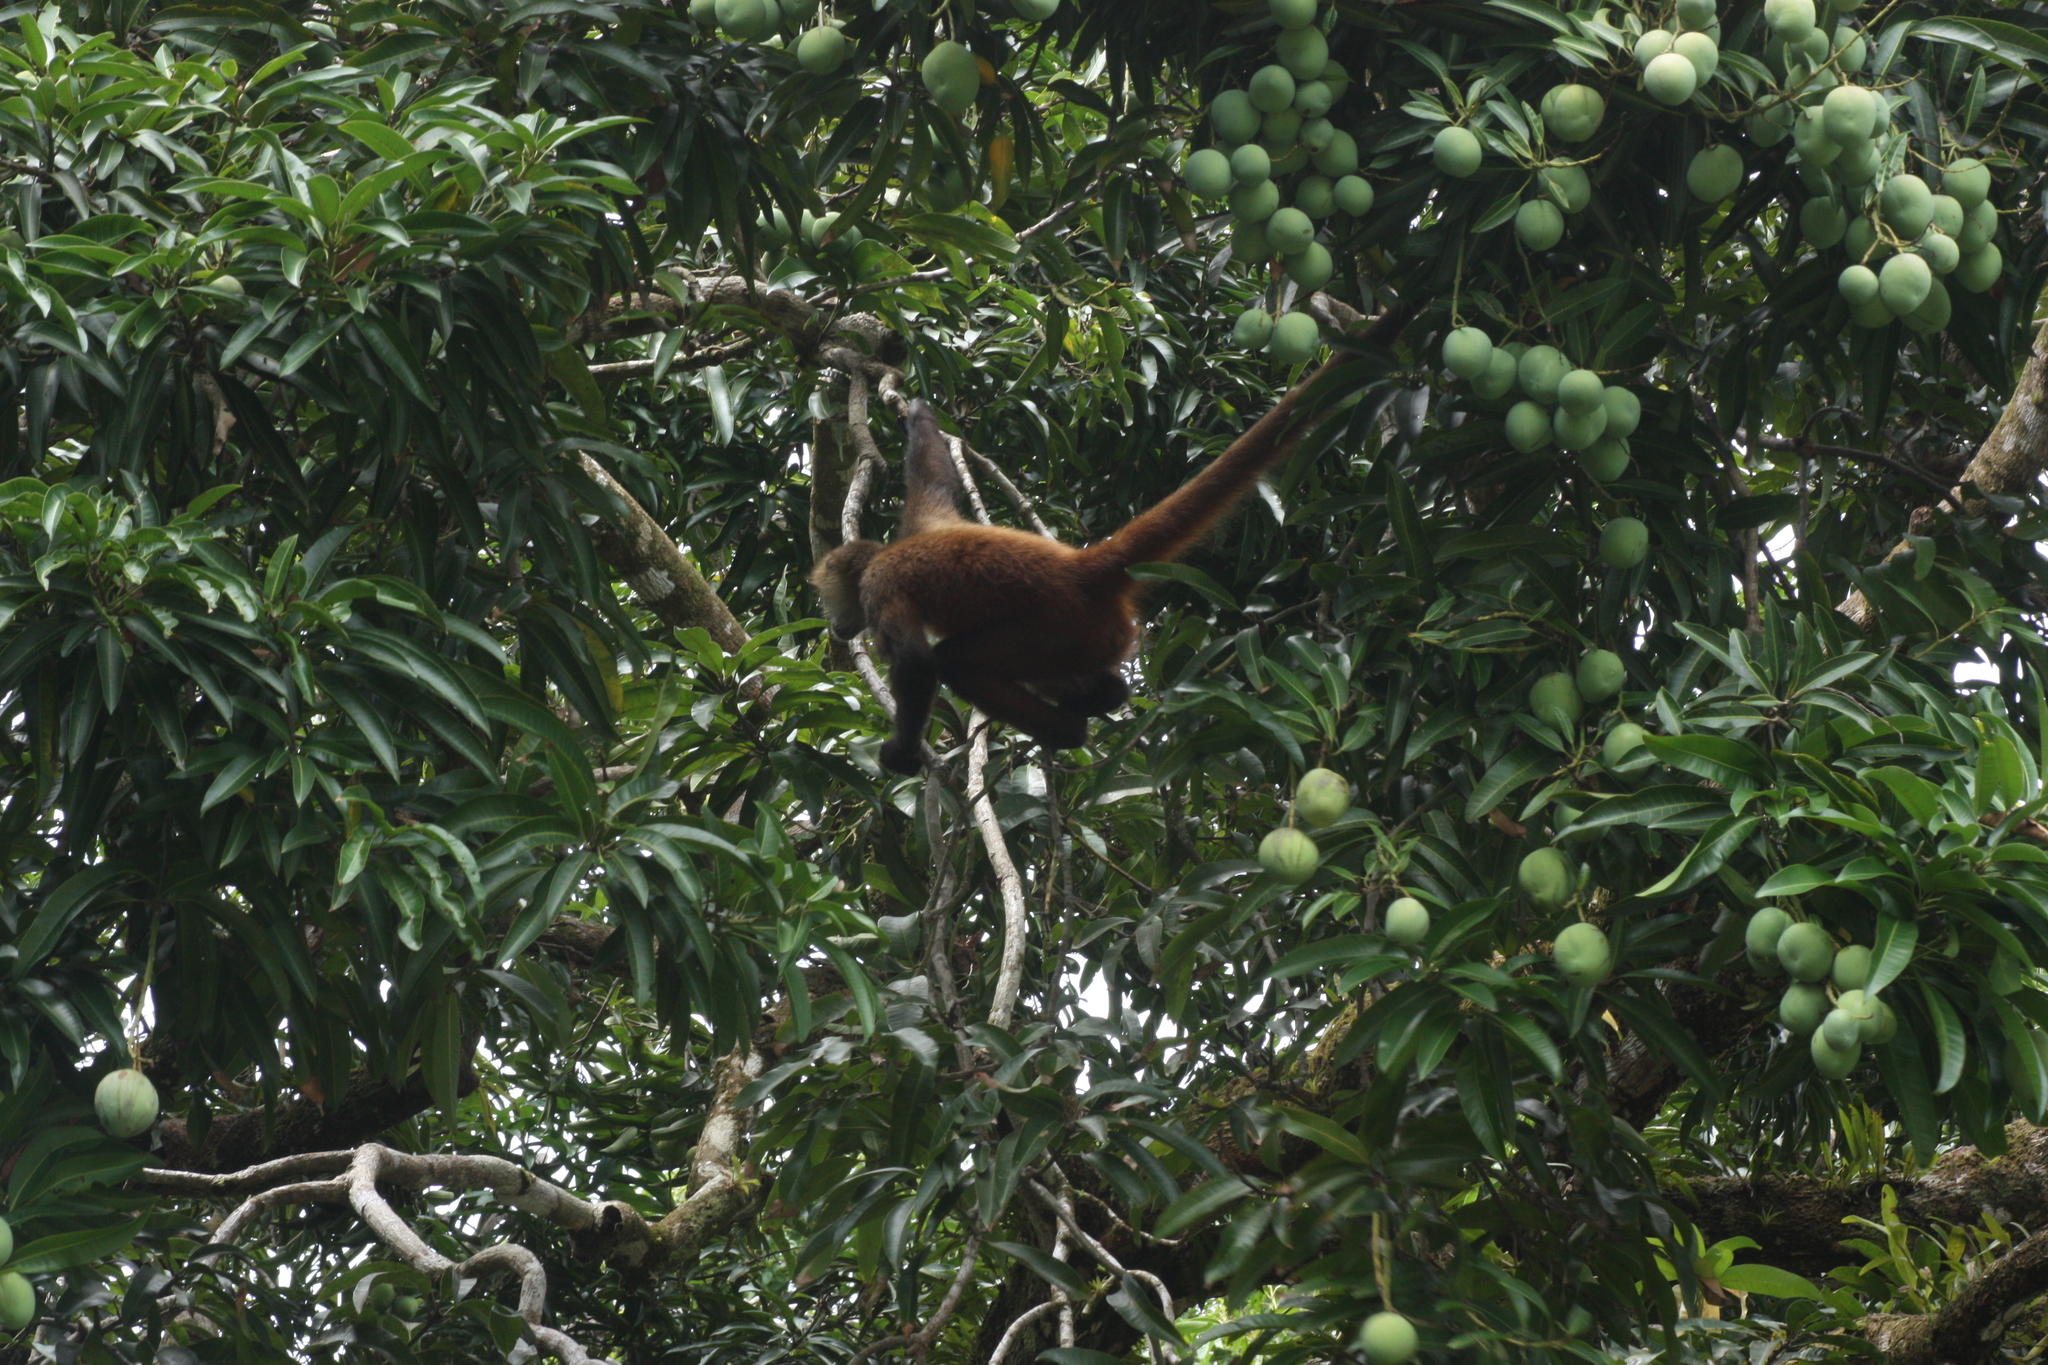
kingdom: Animalia
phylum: Chordata
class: Mammalia
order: Primates
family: Atelidae
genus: Ateles
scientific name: Ateles geoffroyi
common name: Black-handed spider monkey
